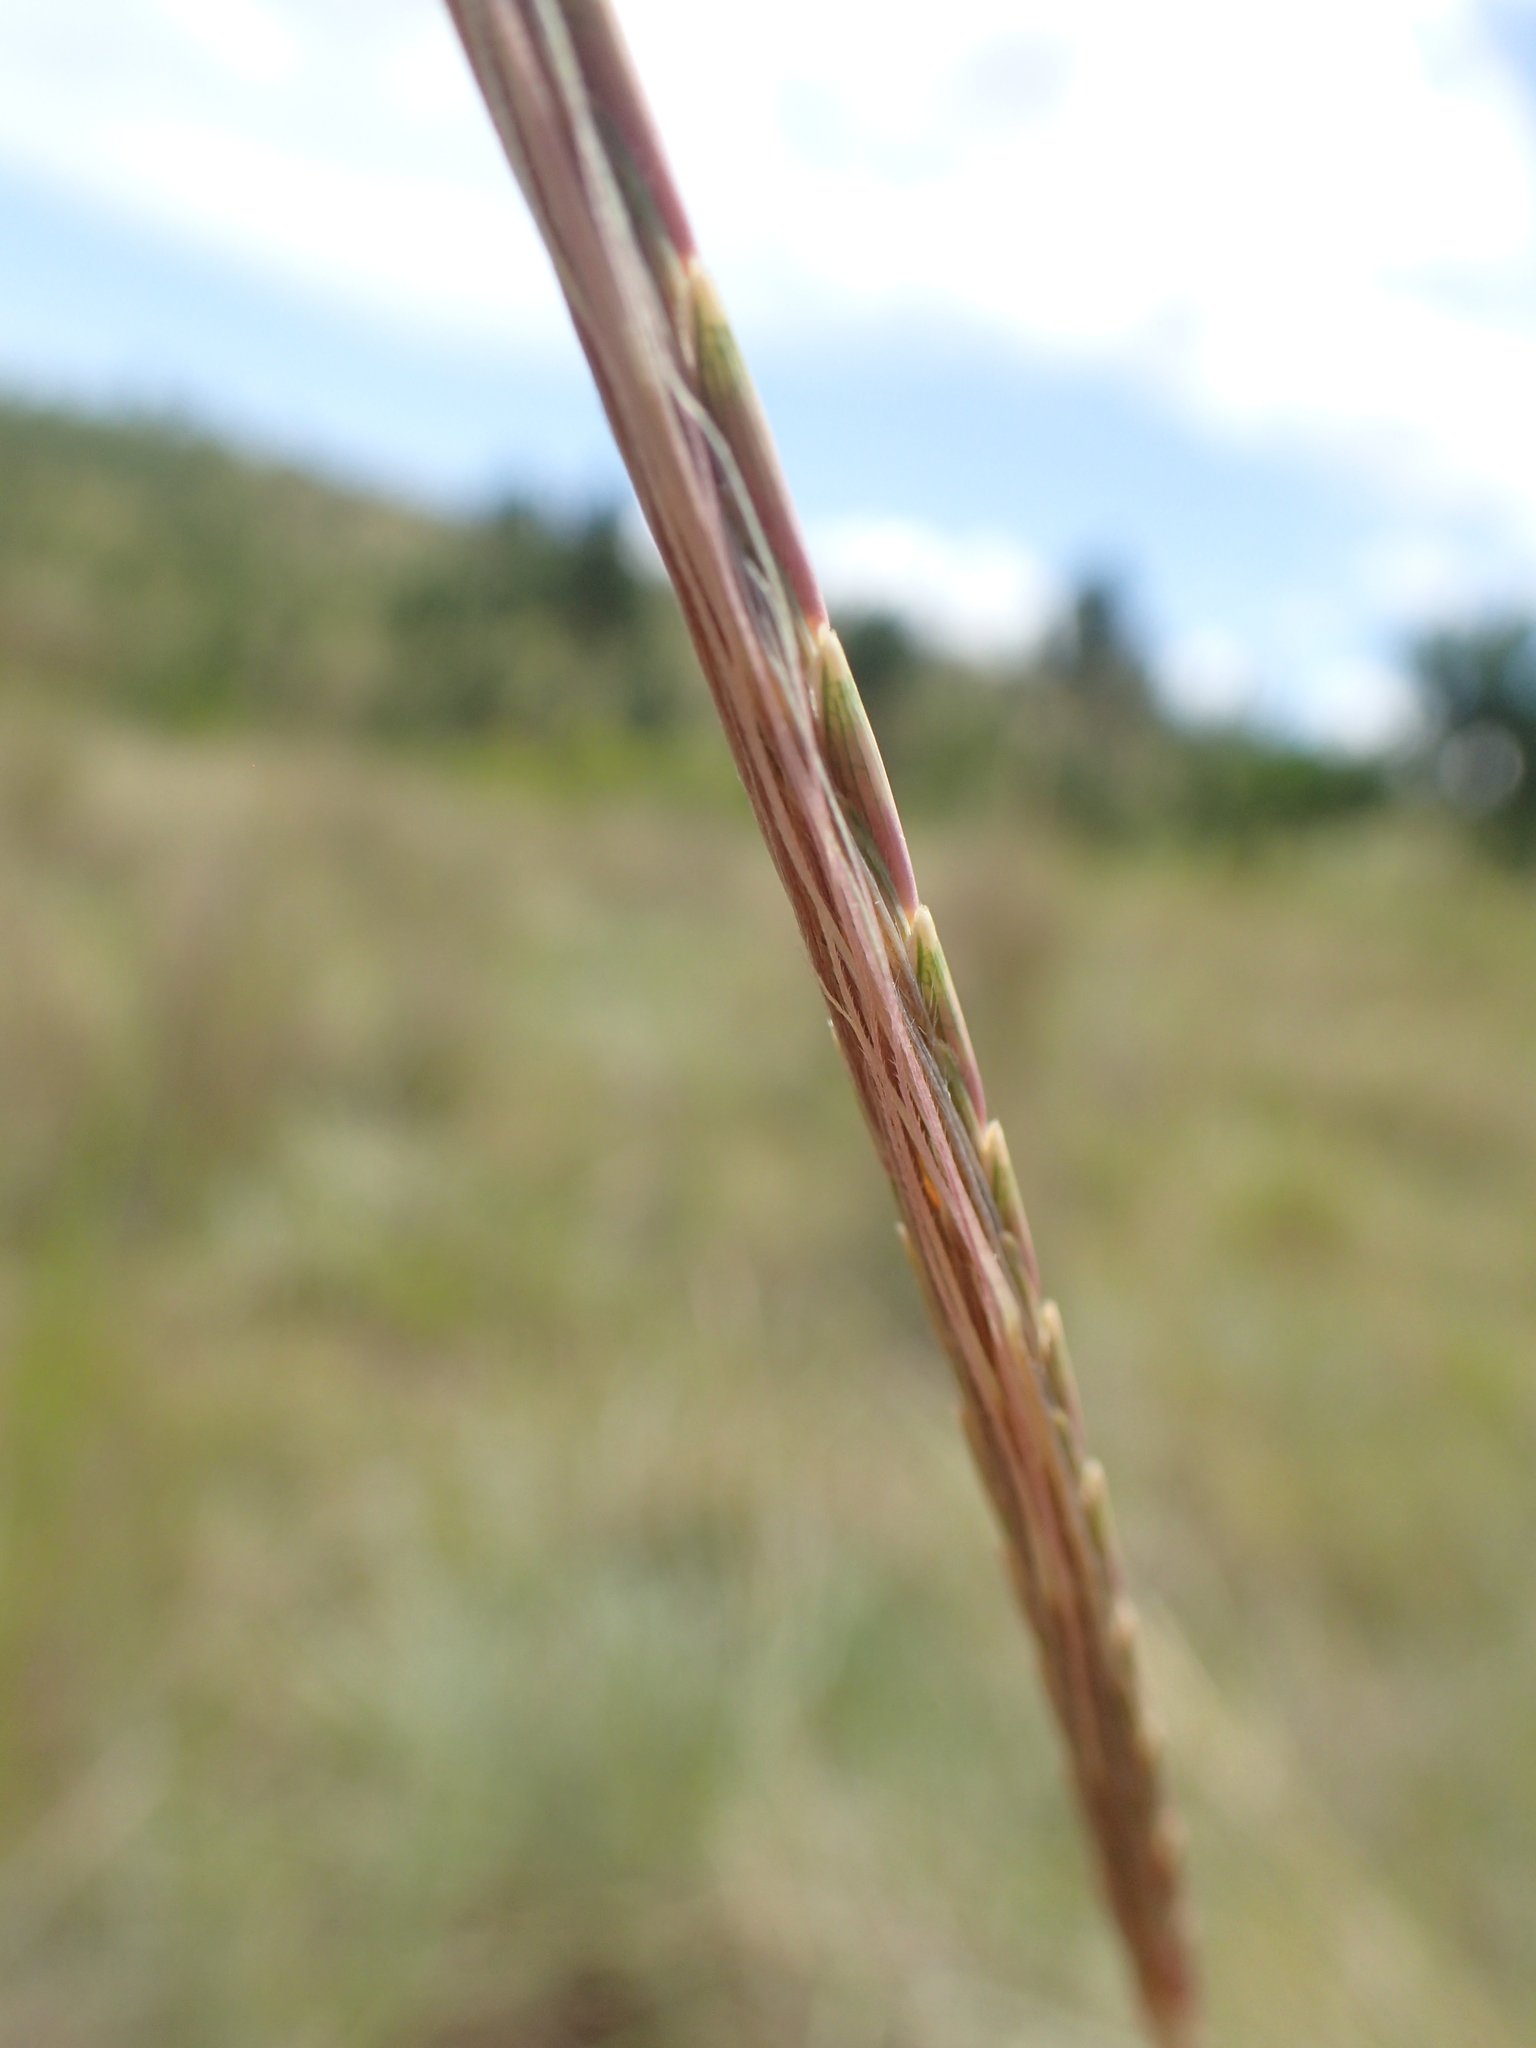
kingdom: Plantae
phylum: Tracheophyta
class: Liliopsida
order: Poales
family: Poaceae
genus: Trachypogon
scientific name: Trachypogon spicatus
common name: Crinkle-awn
